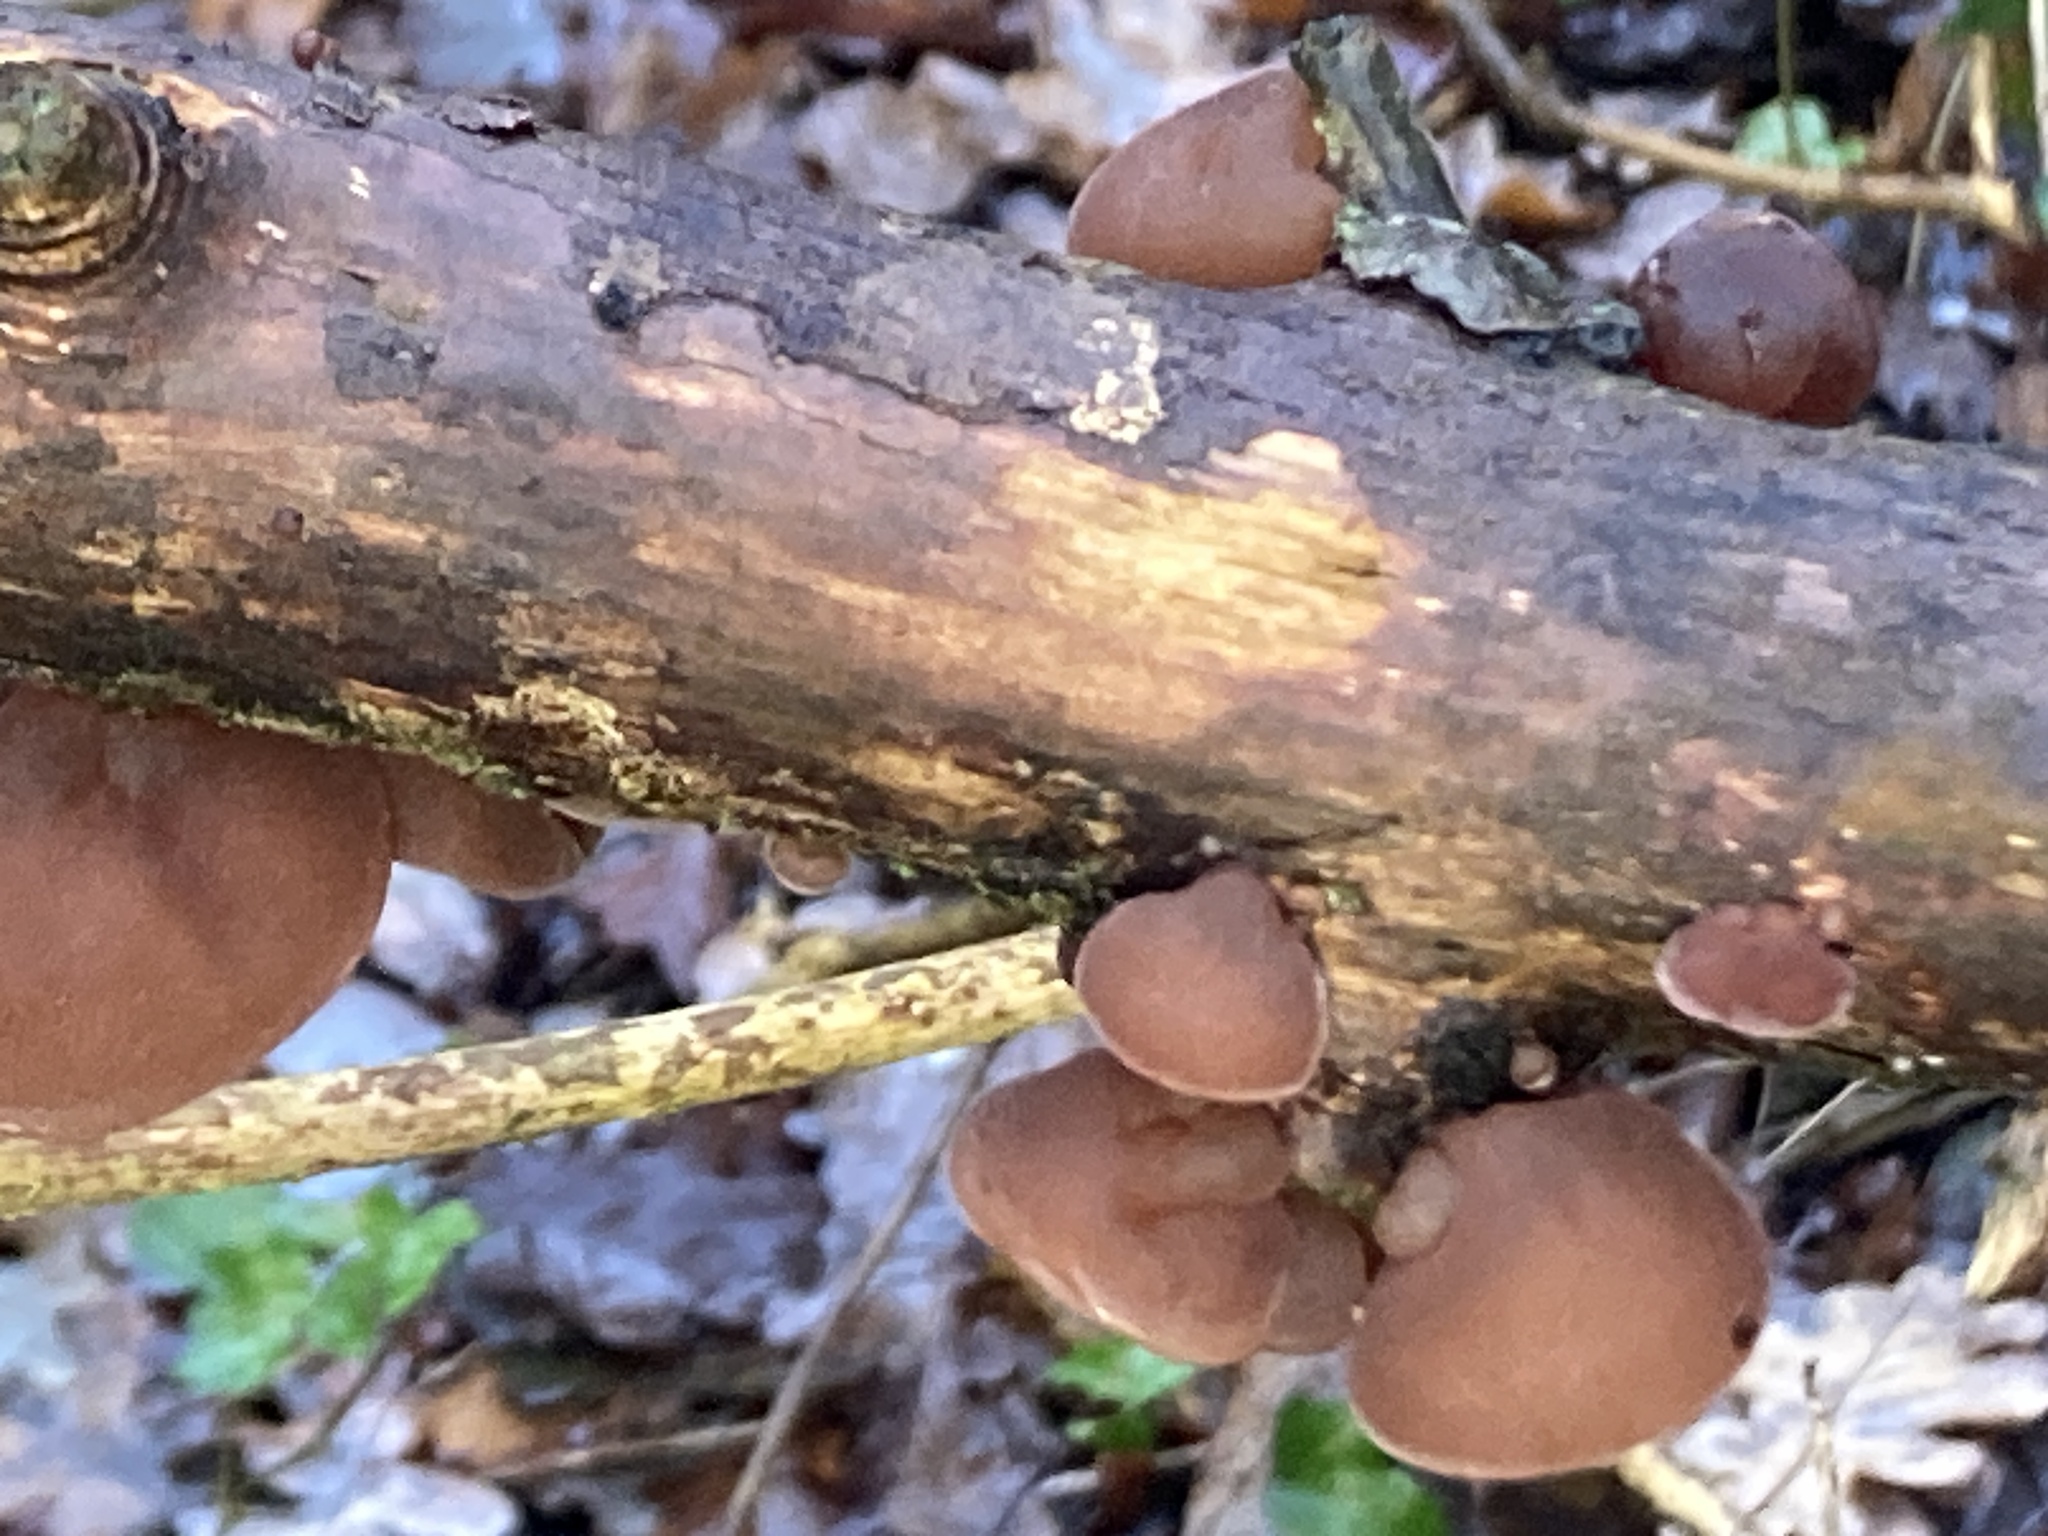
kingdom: Fungi
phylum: Basidiomycota
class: Agaricomycetes
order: Auriculariales
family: Auriculariaceae
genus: Auricularia
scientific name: Auricularia auricula-judae
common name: Jelly ear
